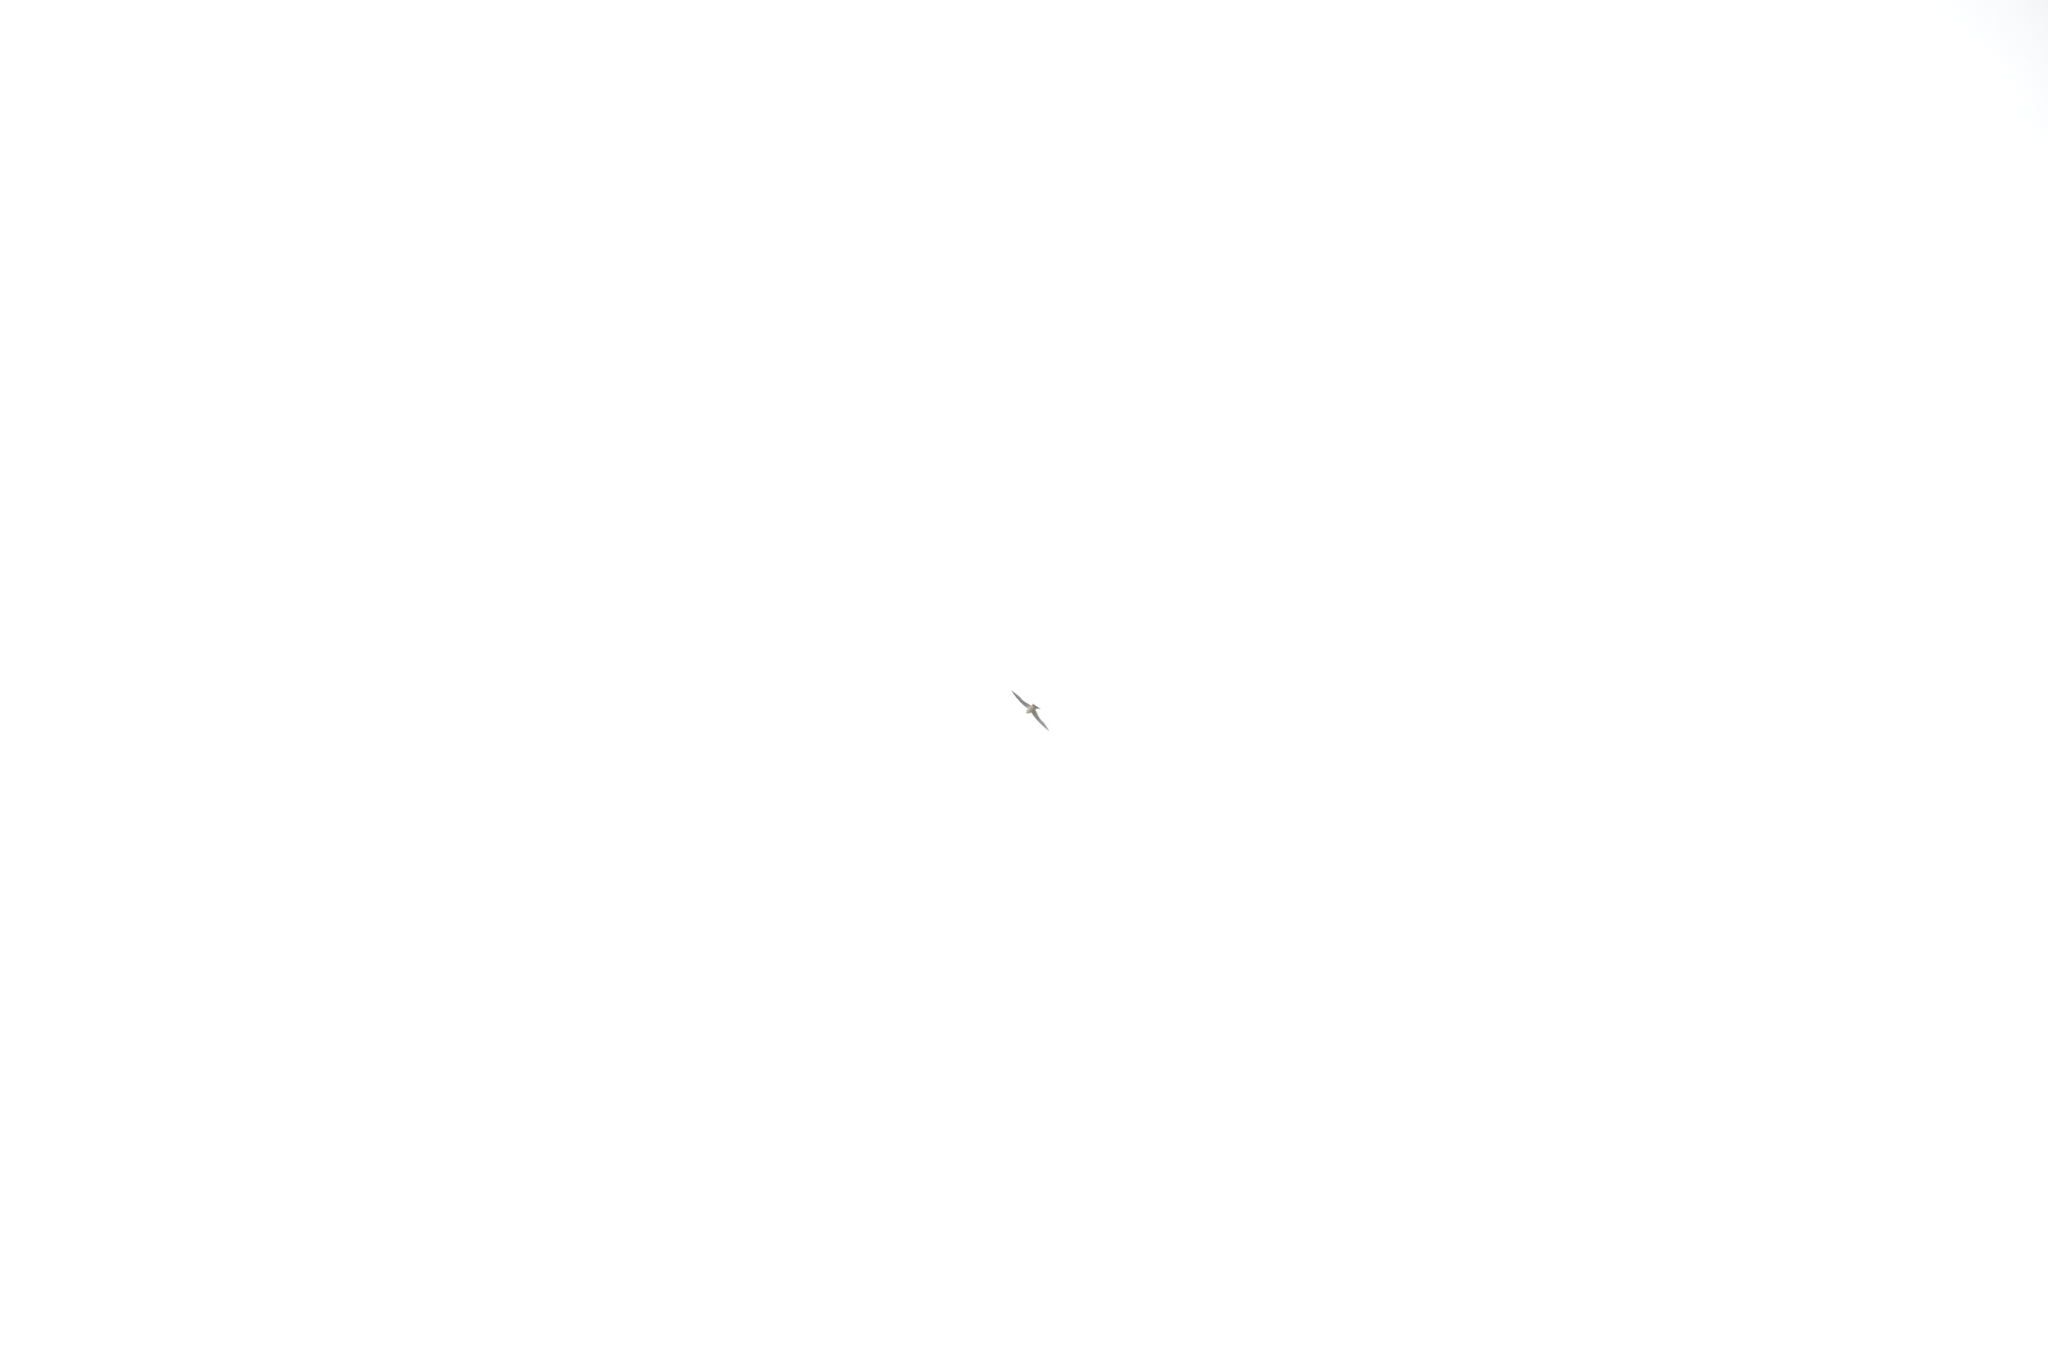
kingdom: Animalia
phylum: Chordata
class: Aves
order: Passeriformes
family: Hirundinidae
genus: Cecropis
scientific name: Cecropis daurica
